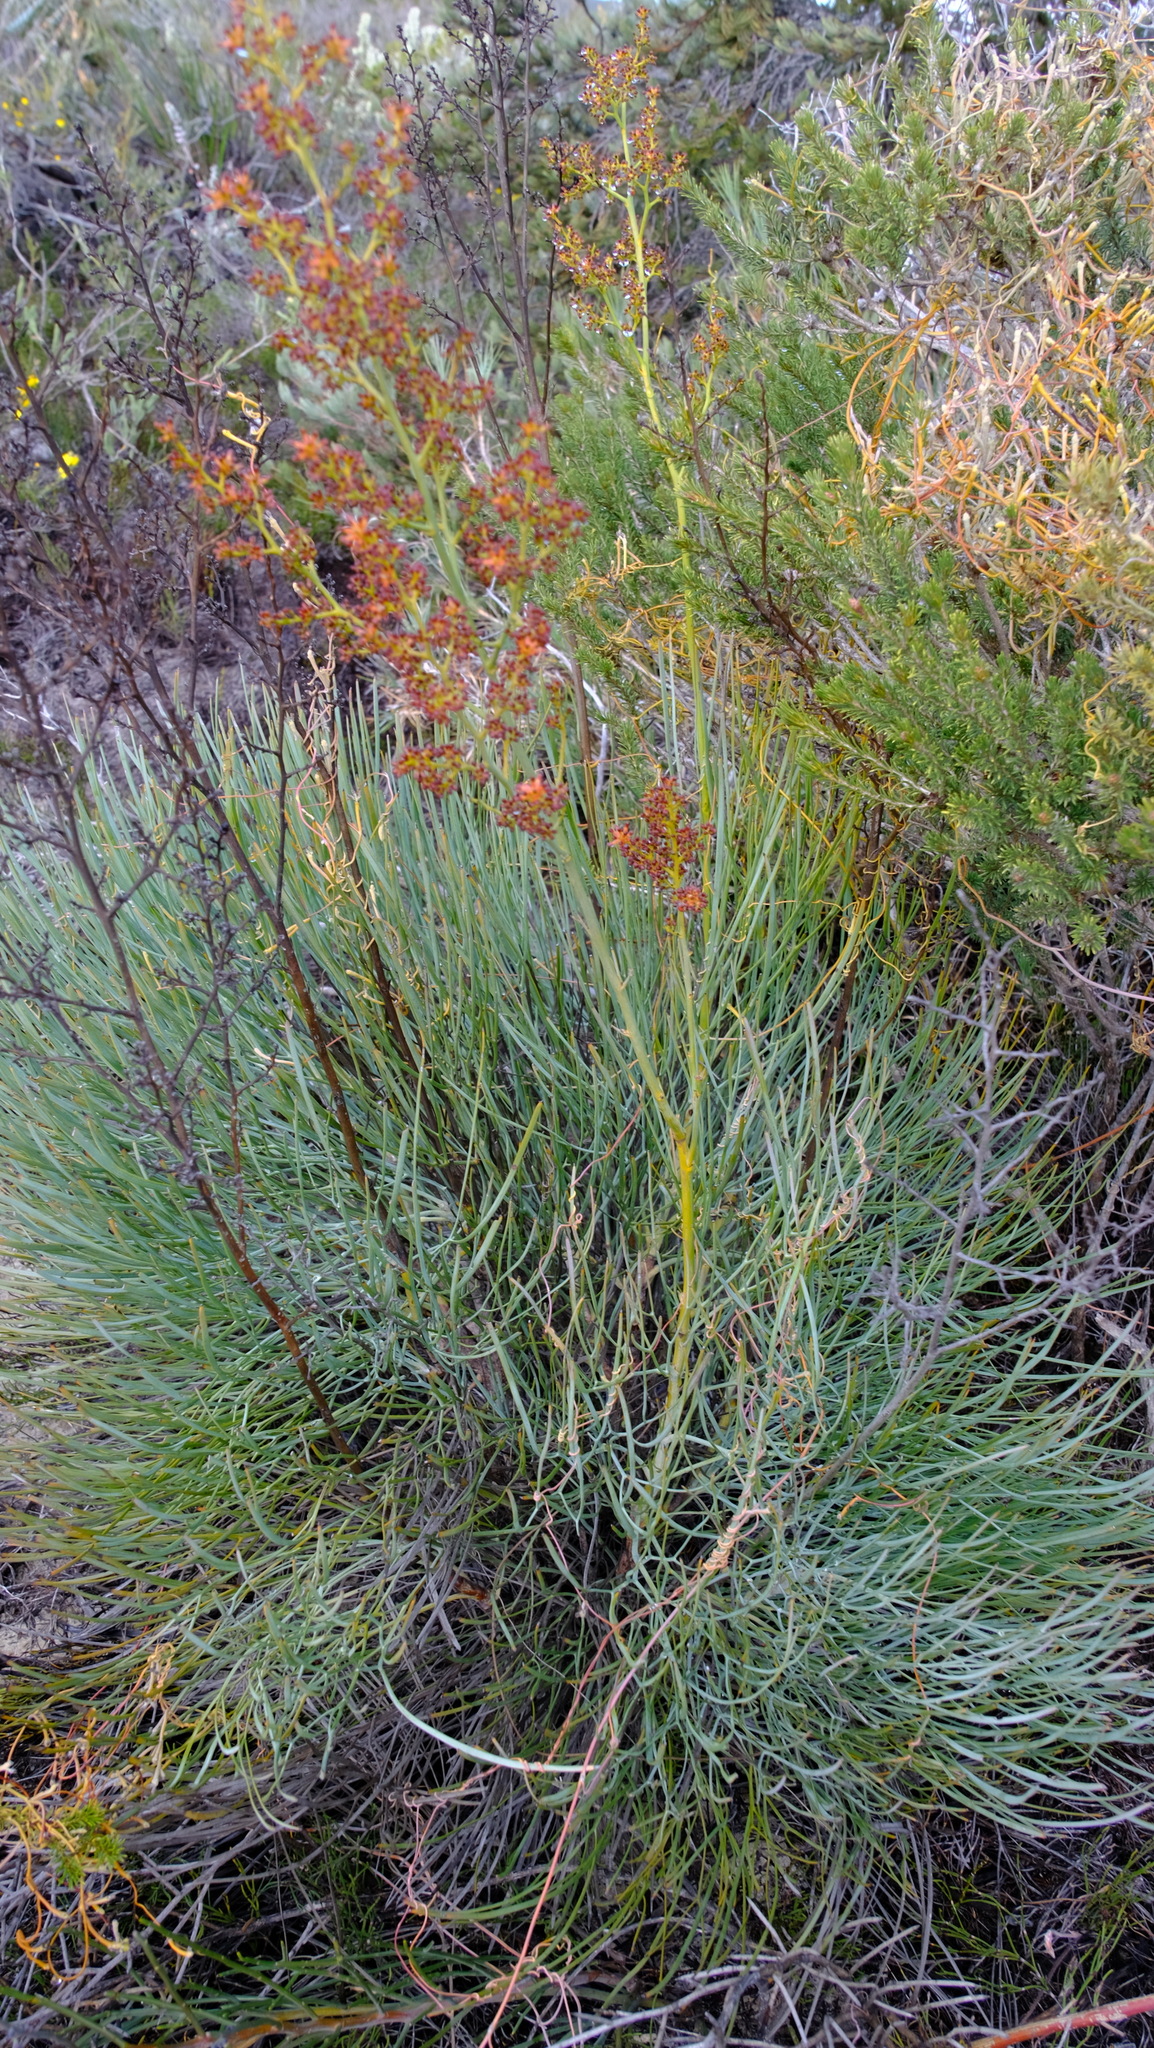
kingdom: Plantae
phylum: Tracheophyta
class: Magnoliopsida
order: Proteales
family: Proteaceae
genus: Stirlingia
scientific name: Stirlingia latifolia
